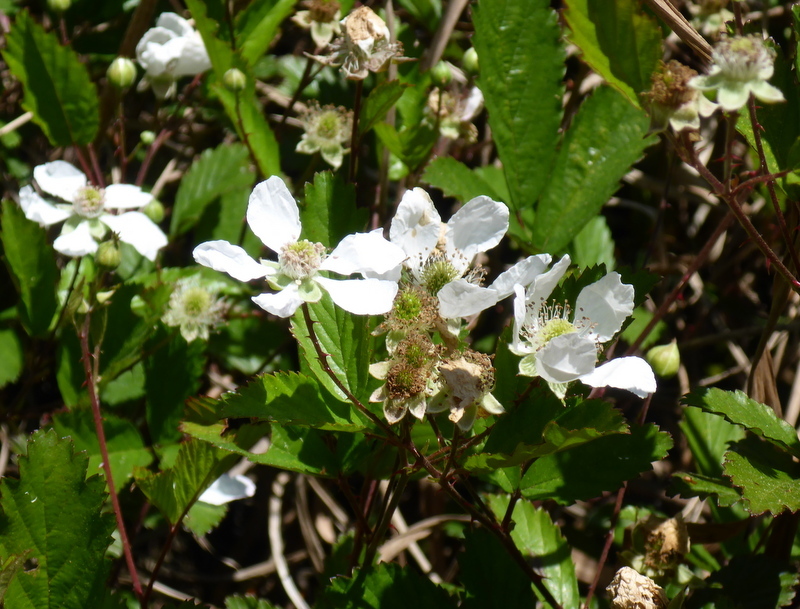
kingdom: Plantae
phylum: Tracheophyta
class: Magnoliopsida
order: Rosales
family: Rosaceae
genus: Rubus
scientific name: Rubus trivialis
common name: Southern dewberry
